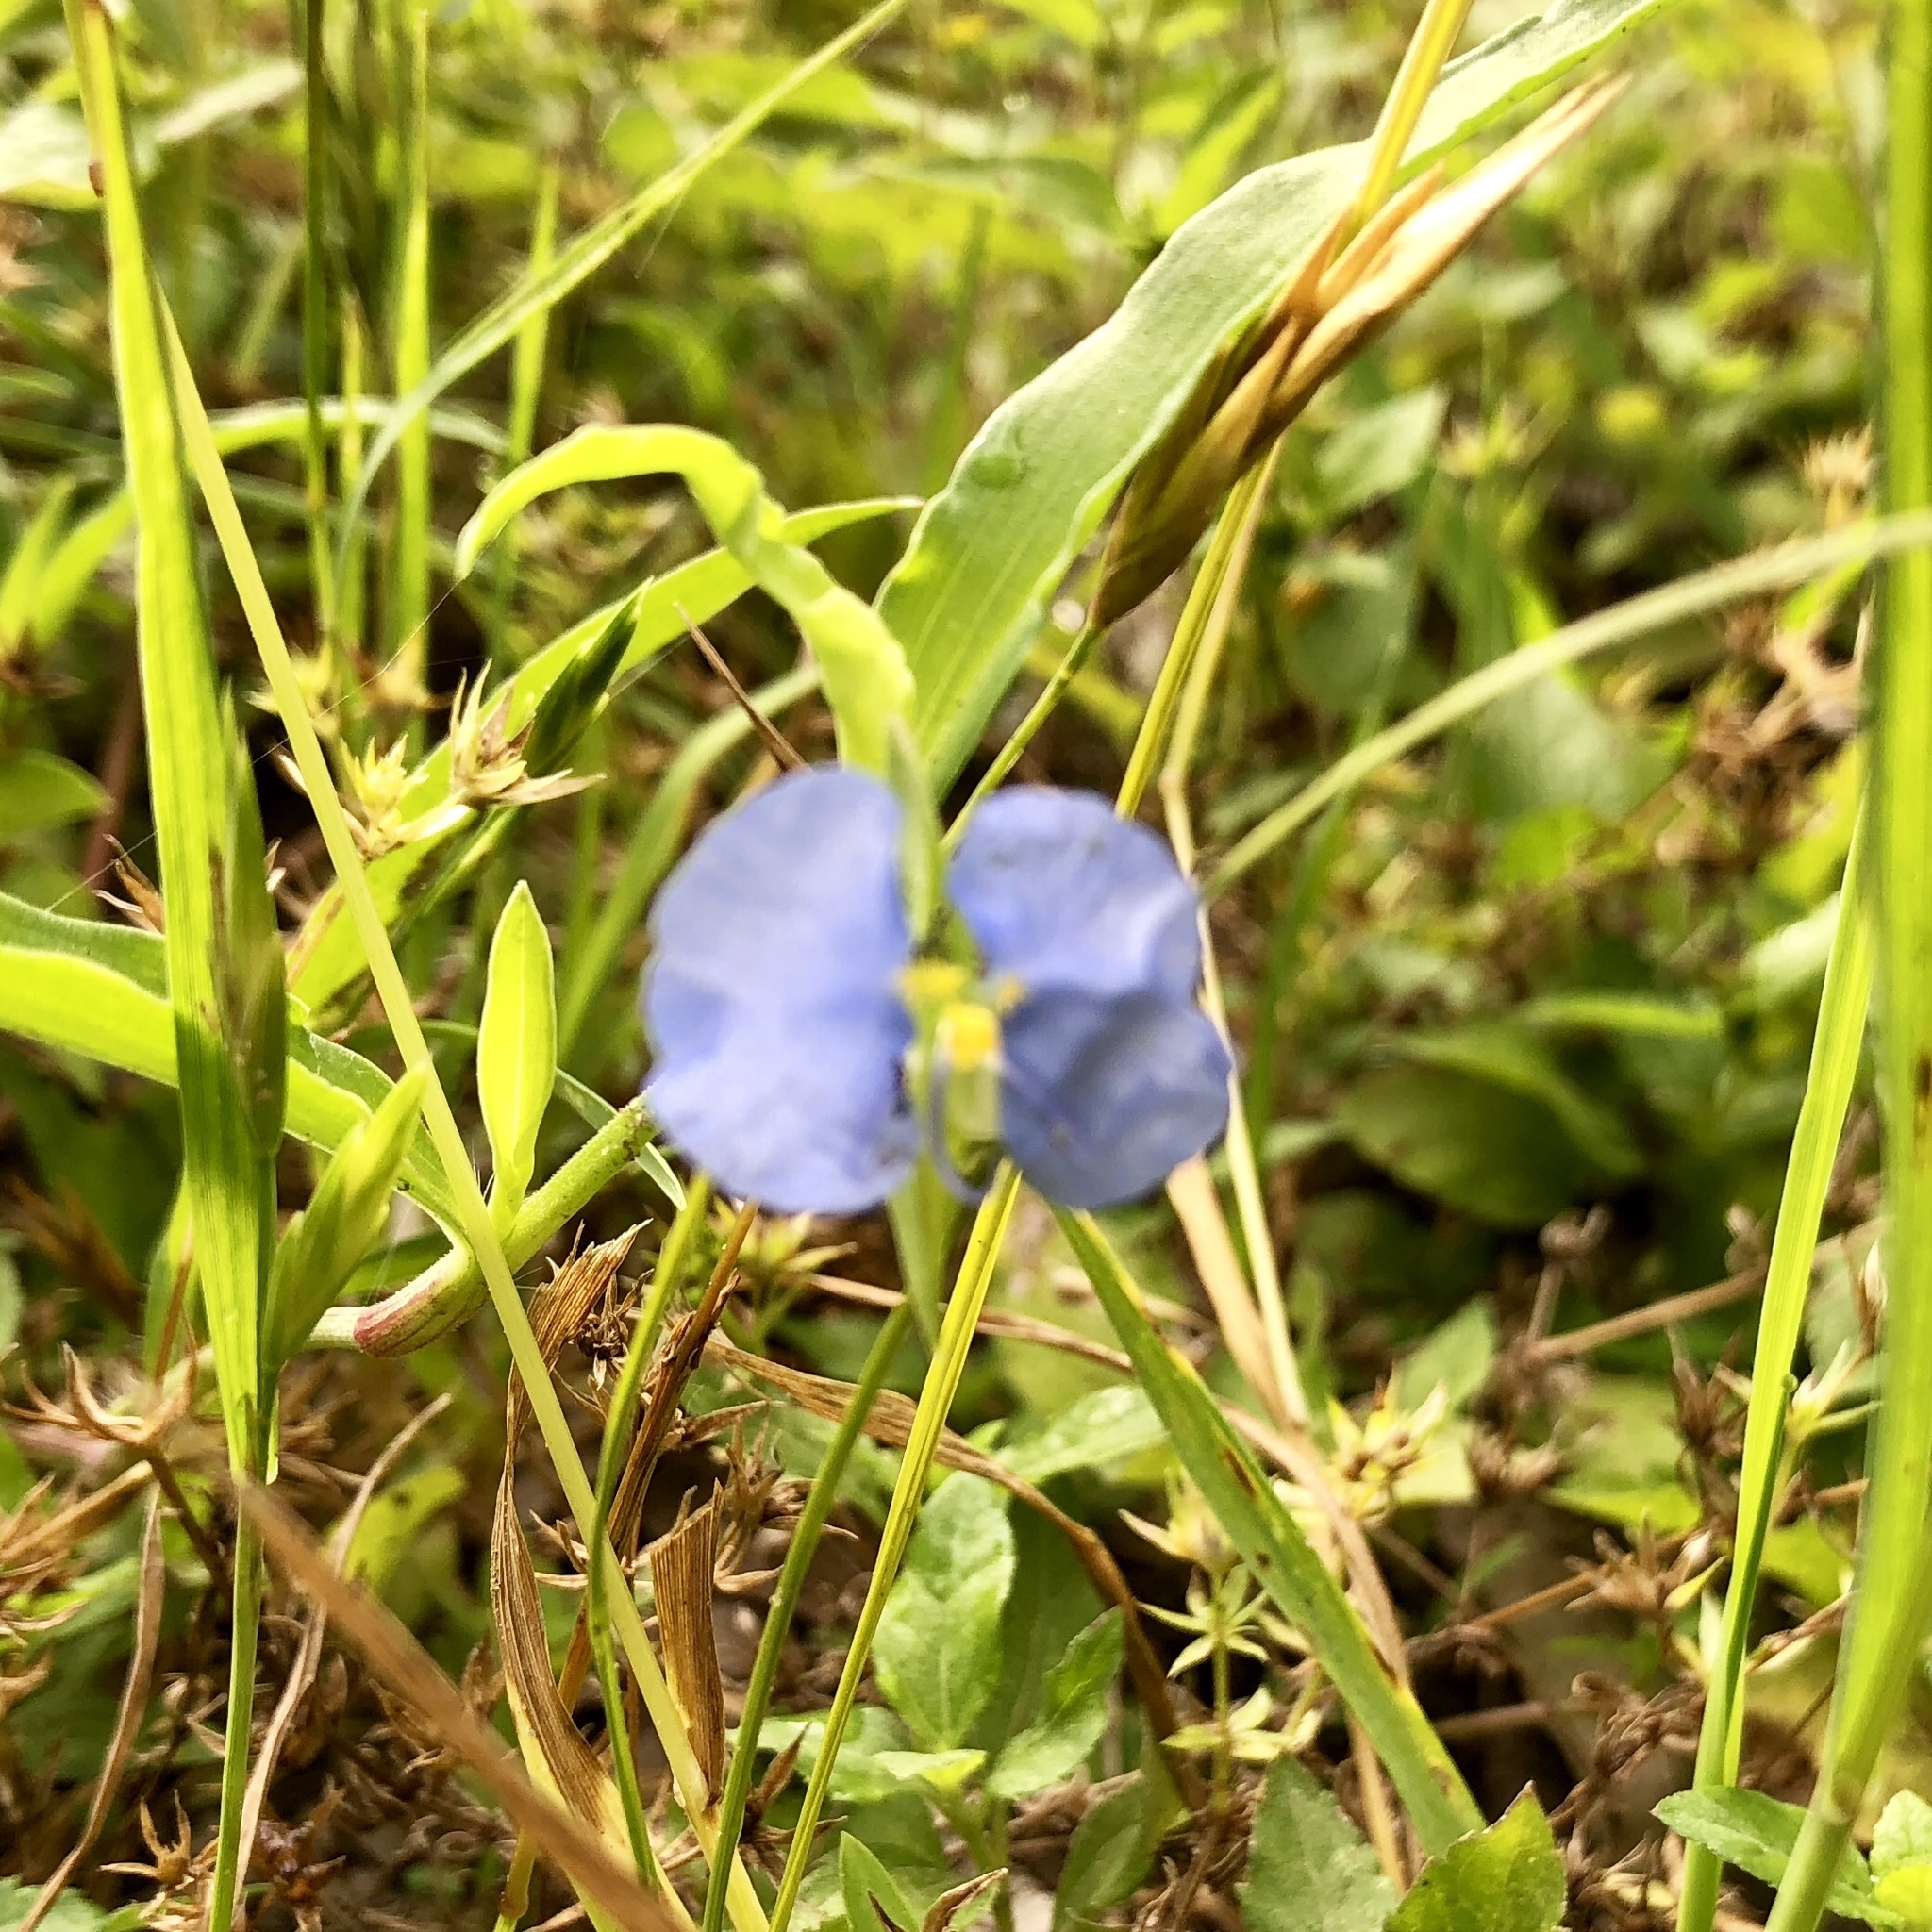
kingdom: Plantae
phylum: Tracheophyta
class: Liliopsida
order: Commelinales
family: Commelinaceae
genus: Commelina
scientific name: Commelina erecta
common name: Blousel blommetjie
